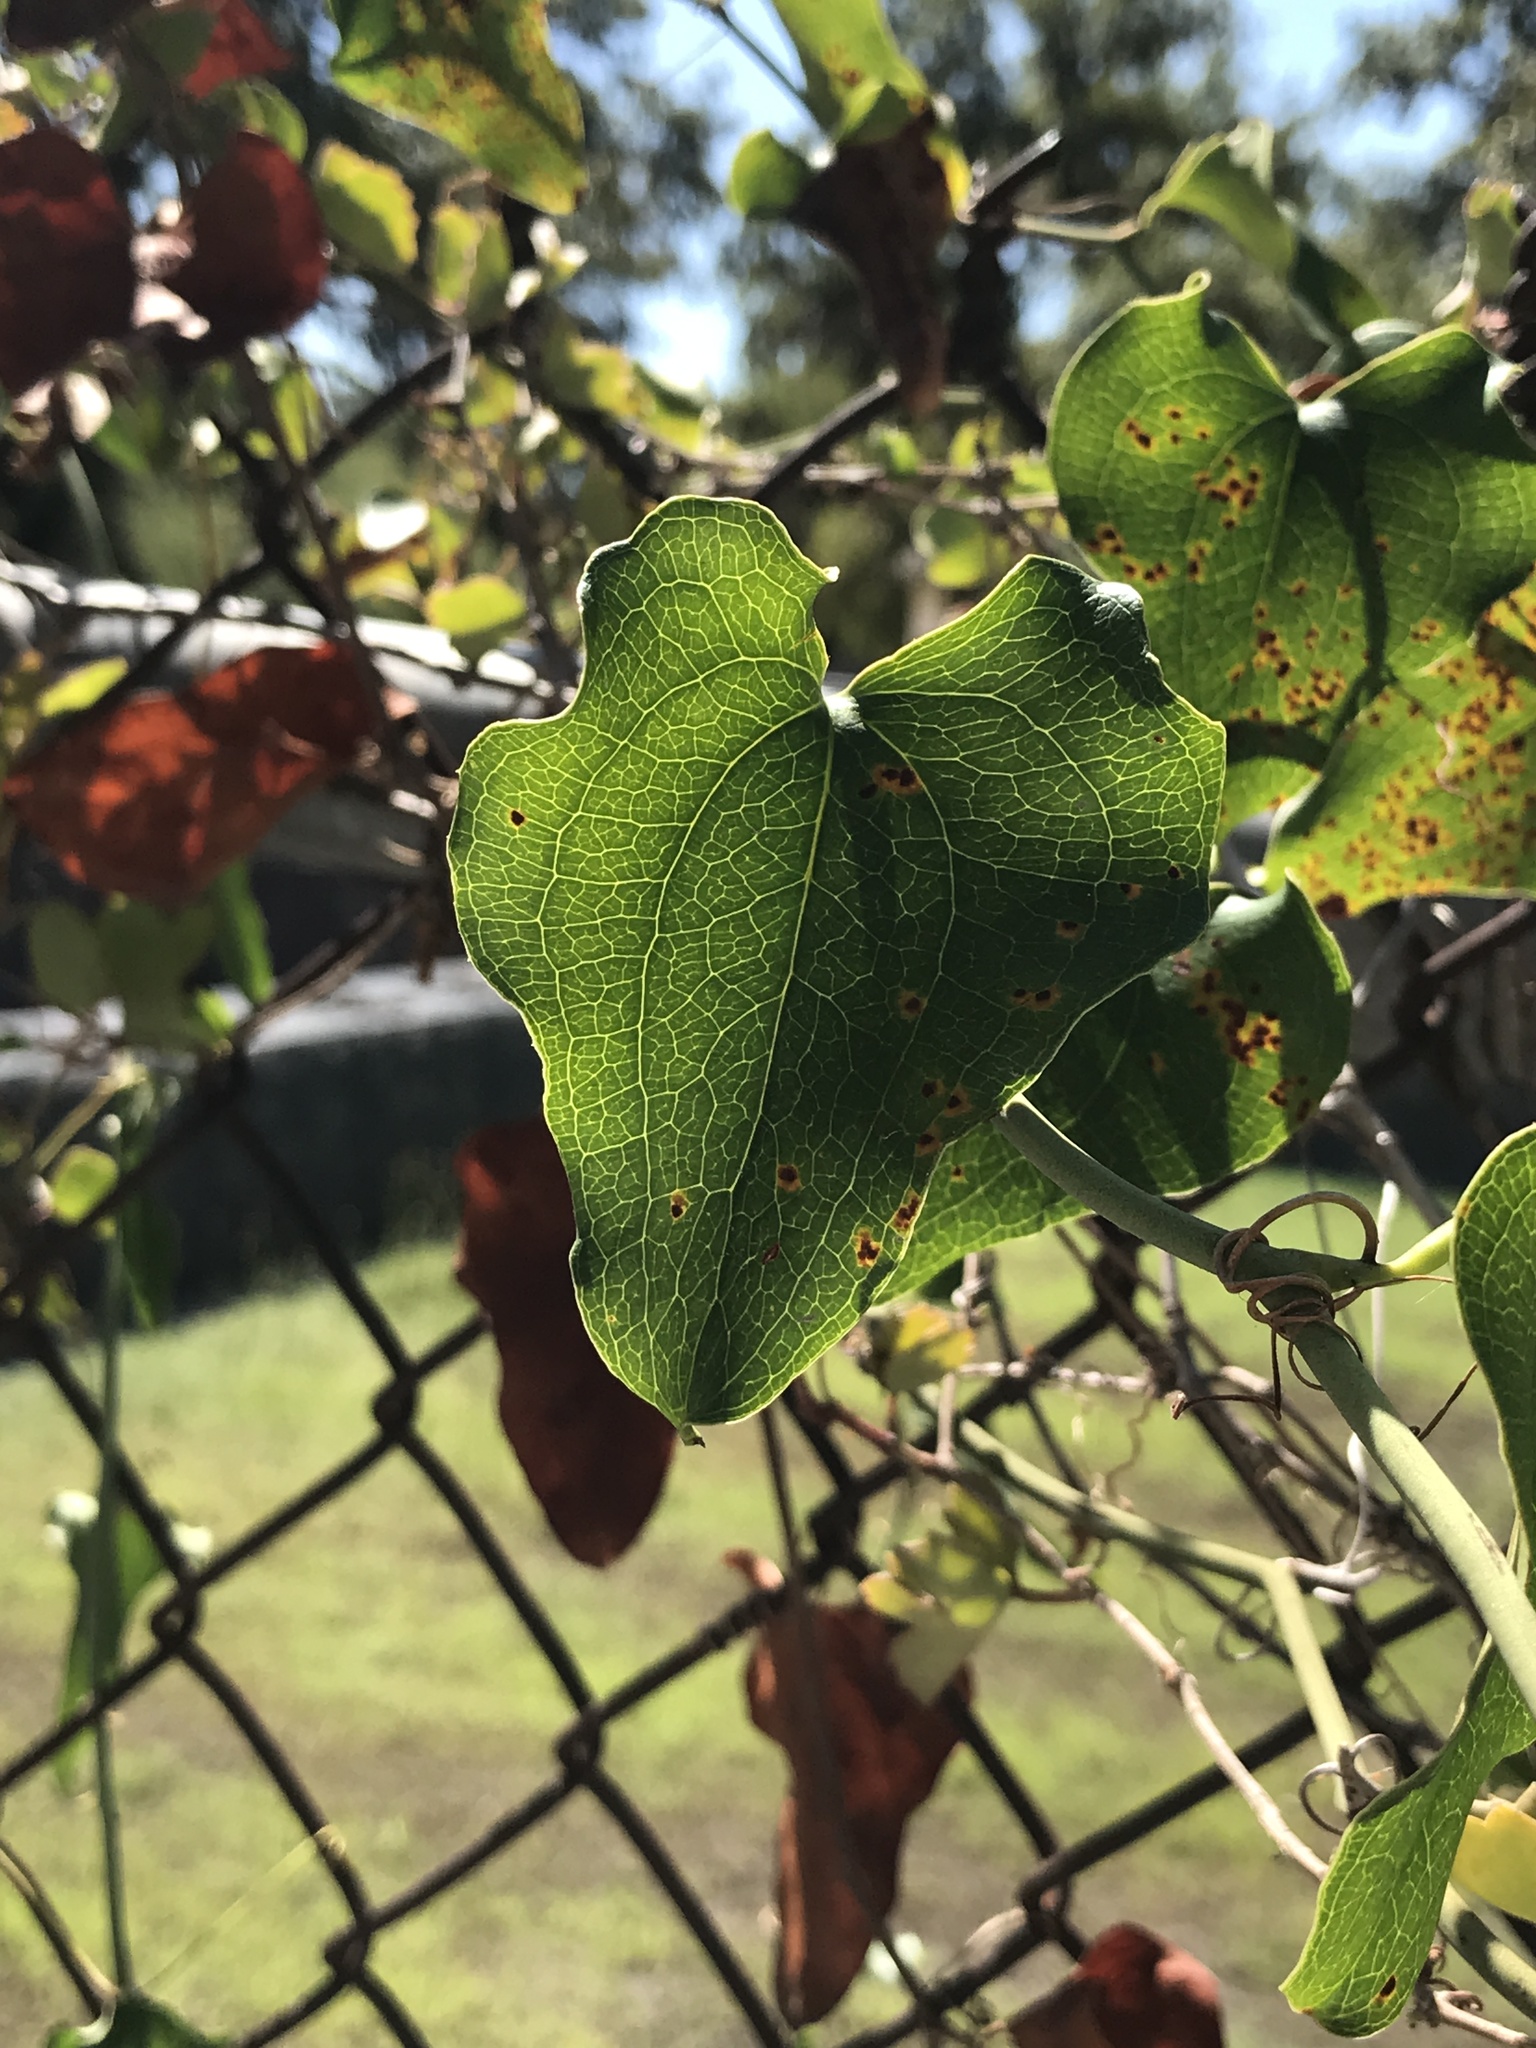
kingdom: Plantae
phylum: Tracheophyta
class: Liliopsida
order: Liliales
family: Smilacaceae
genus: Smilax
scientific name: Smilax bona-nox
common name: Catbrier
